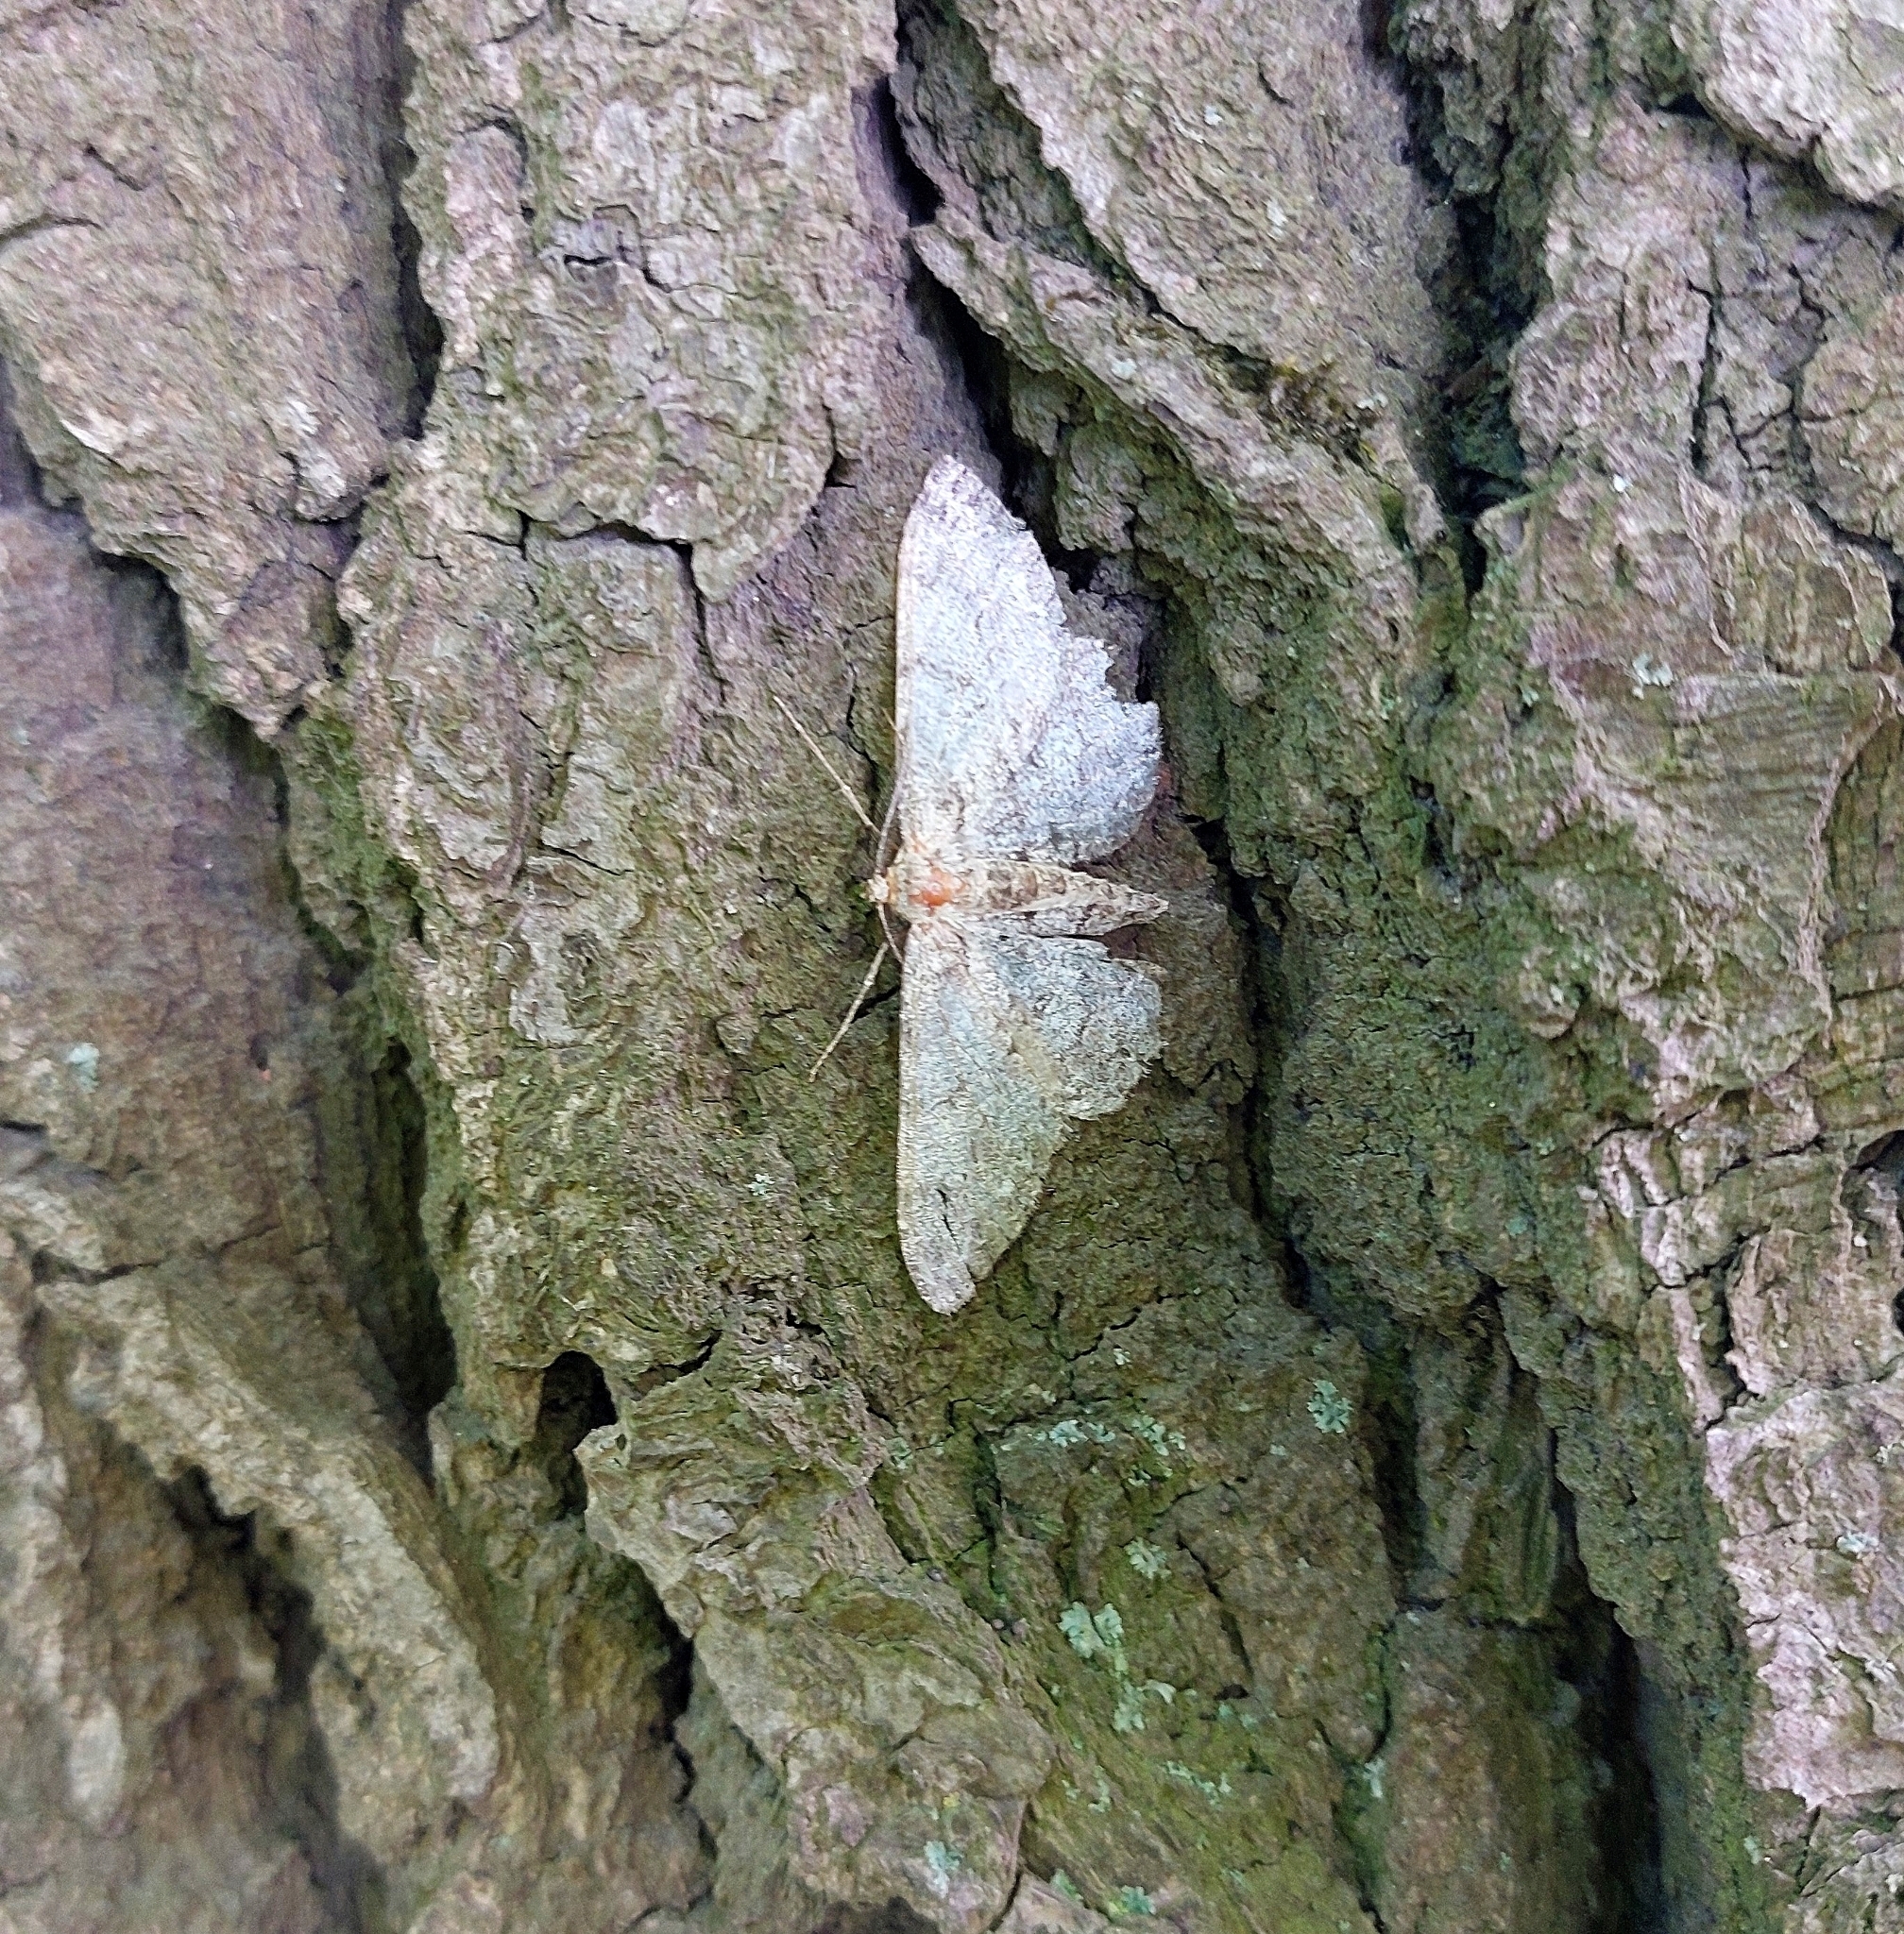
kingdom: Animalia
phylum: Arthropoda
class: Insecta
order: Lepidoptera
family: Geometridae
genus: Hypomecis
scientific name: Hypomecis punctinalis
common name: Pale oak beauty
